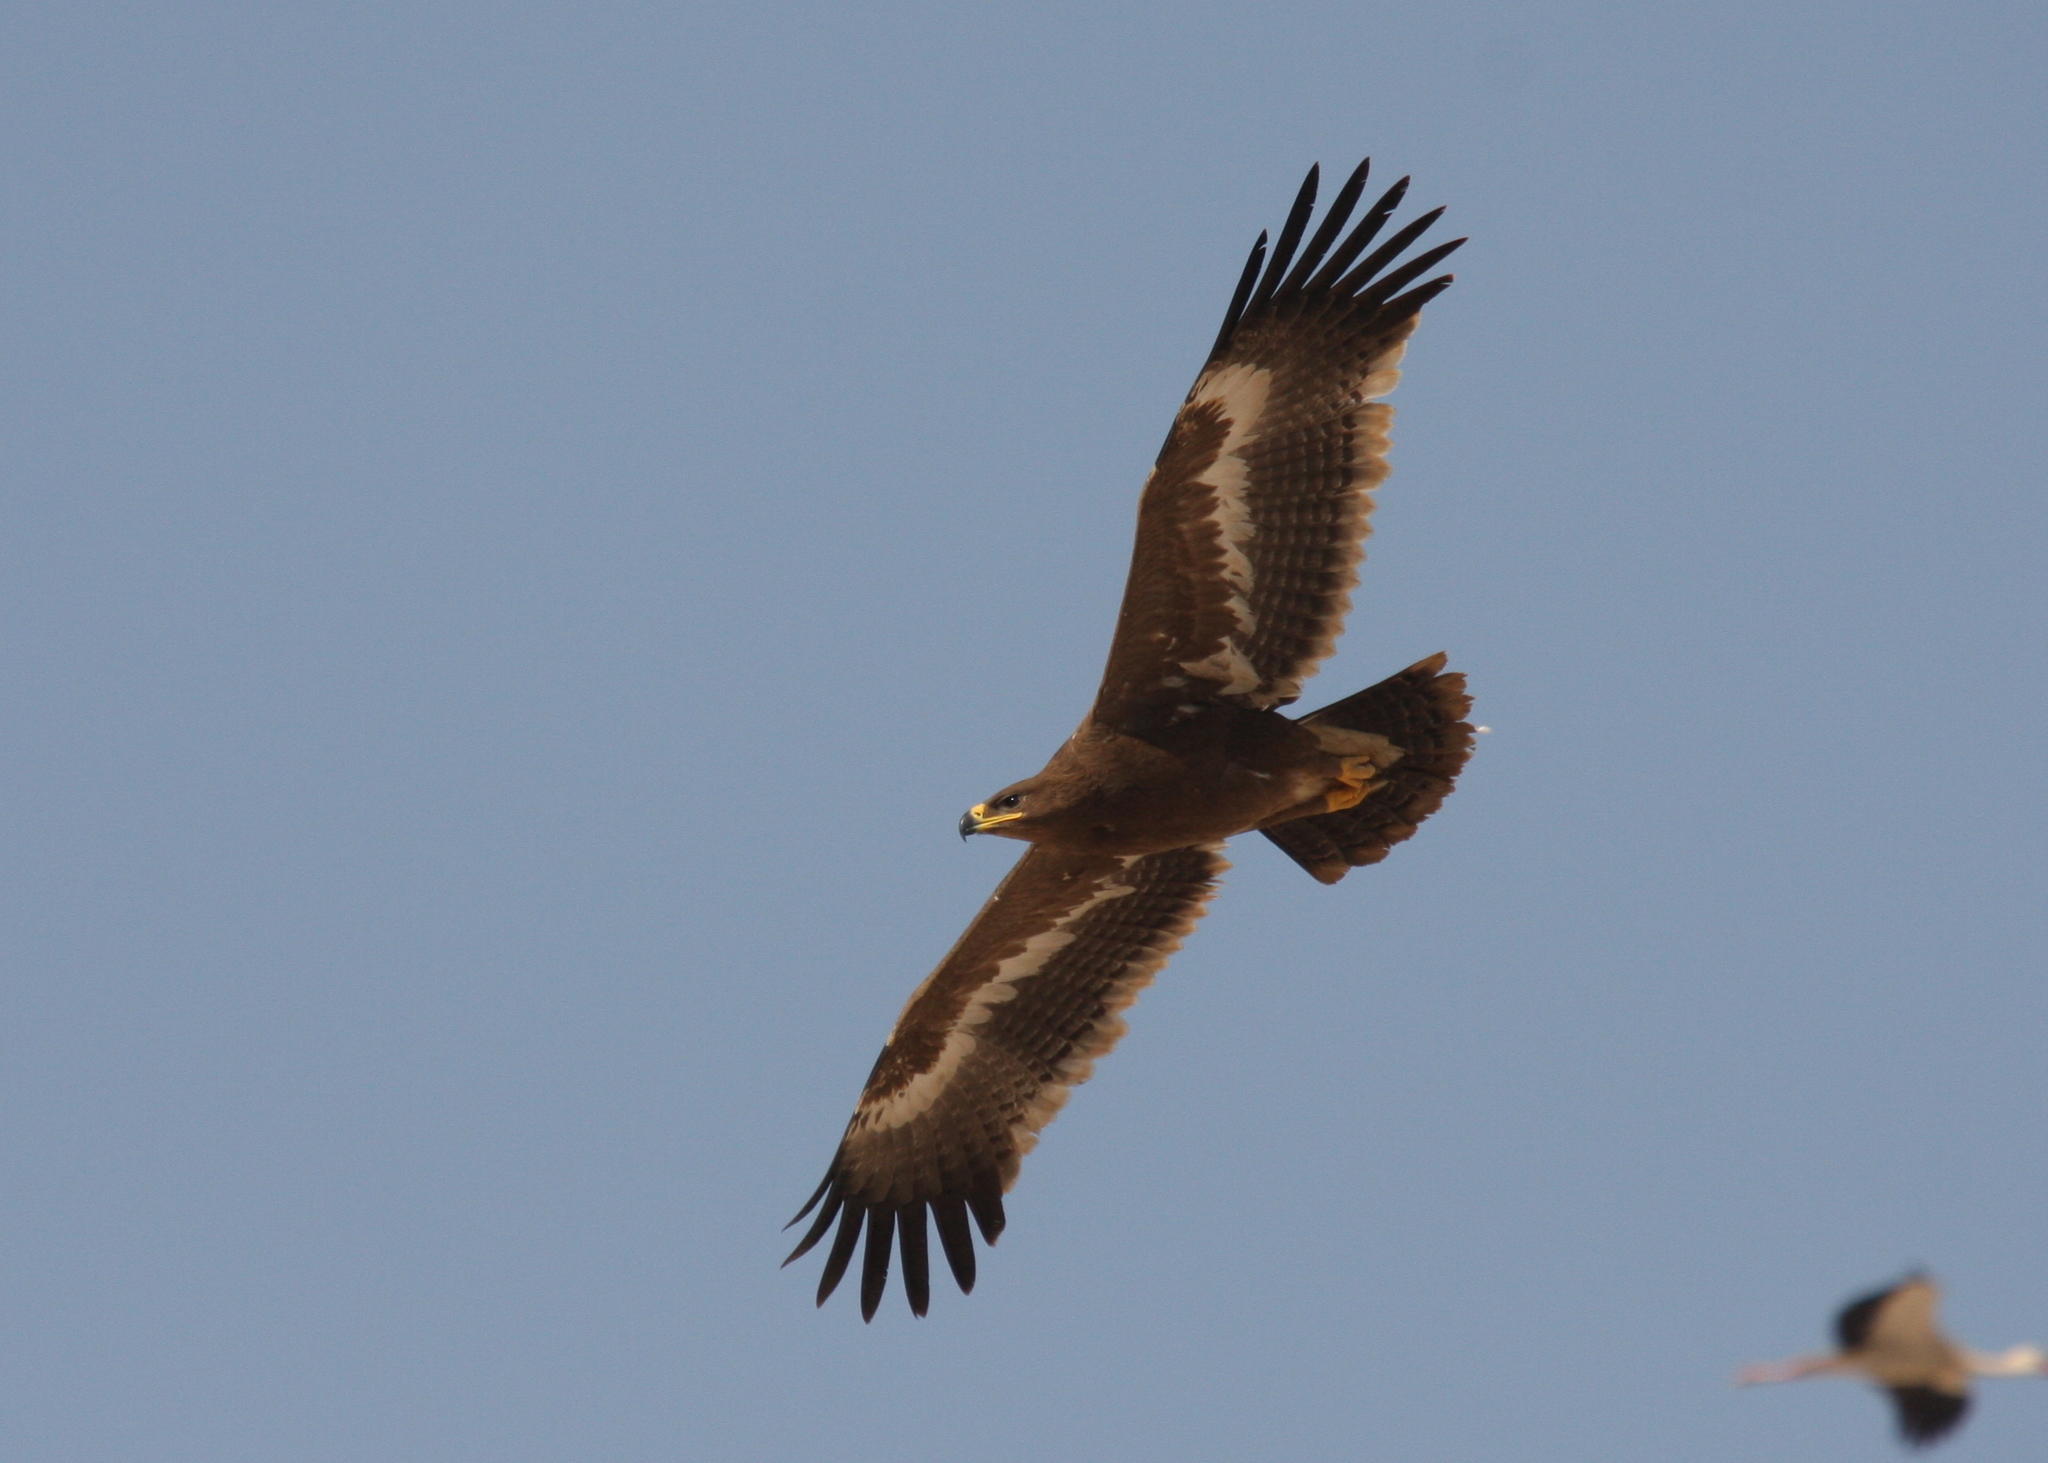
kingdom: Animalia
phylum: Chordata
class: Aves
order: Accipitriformes
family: Accipitridae
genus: Aquila
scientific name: Aquila nipalensis
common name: Steppe eagle
